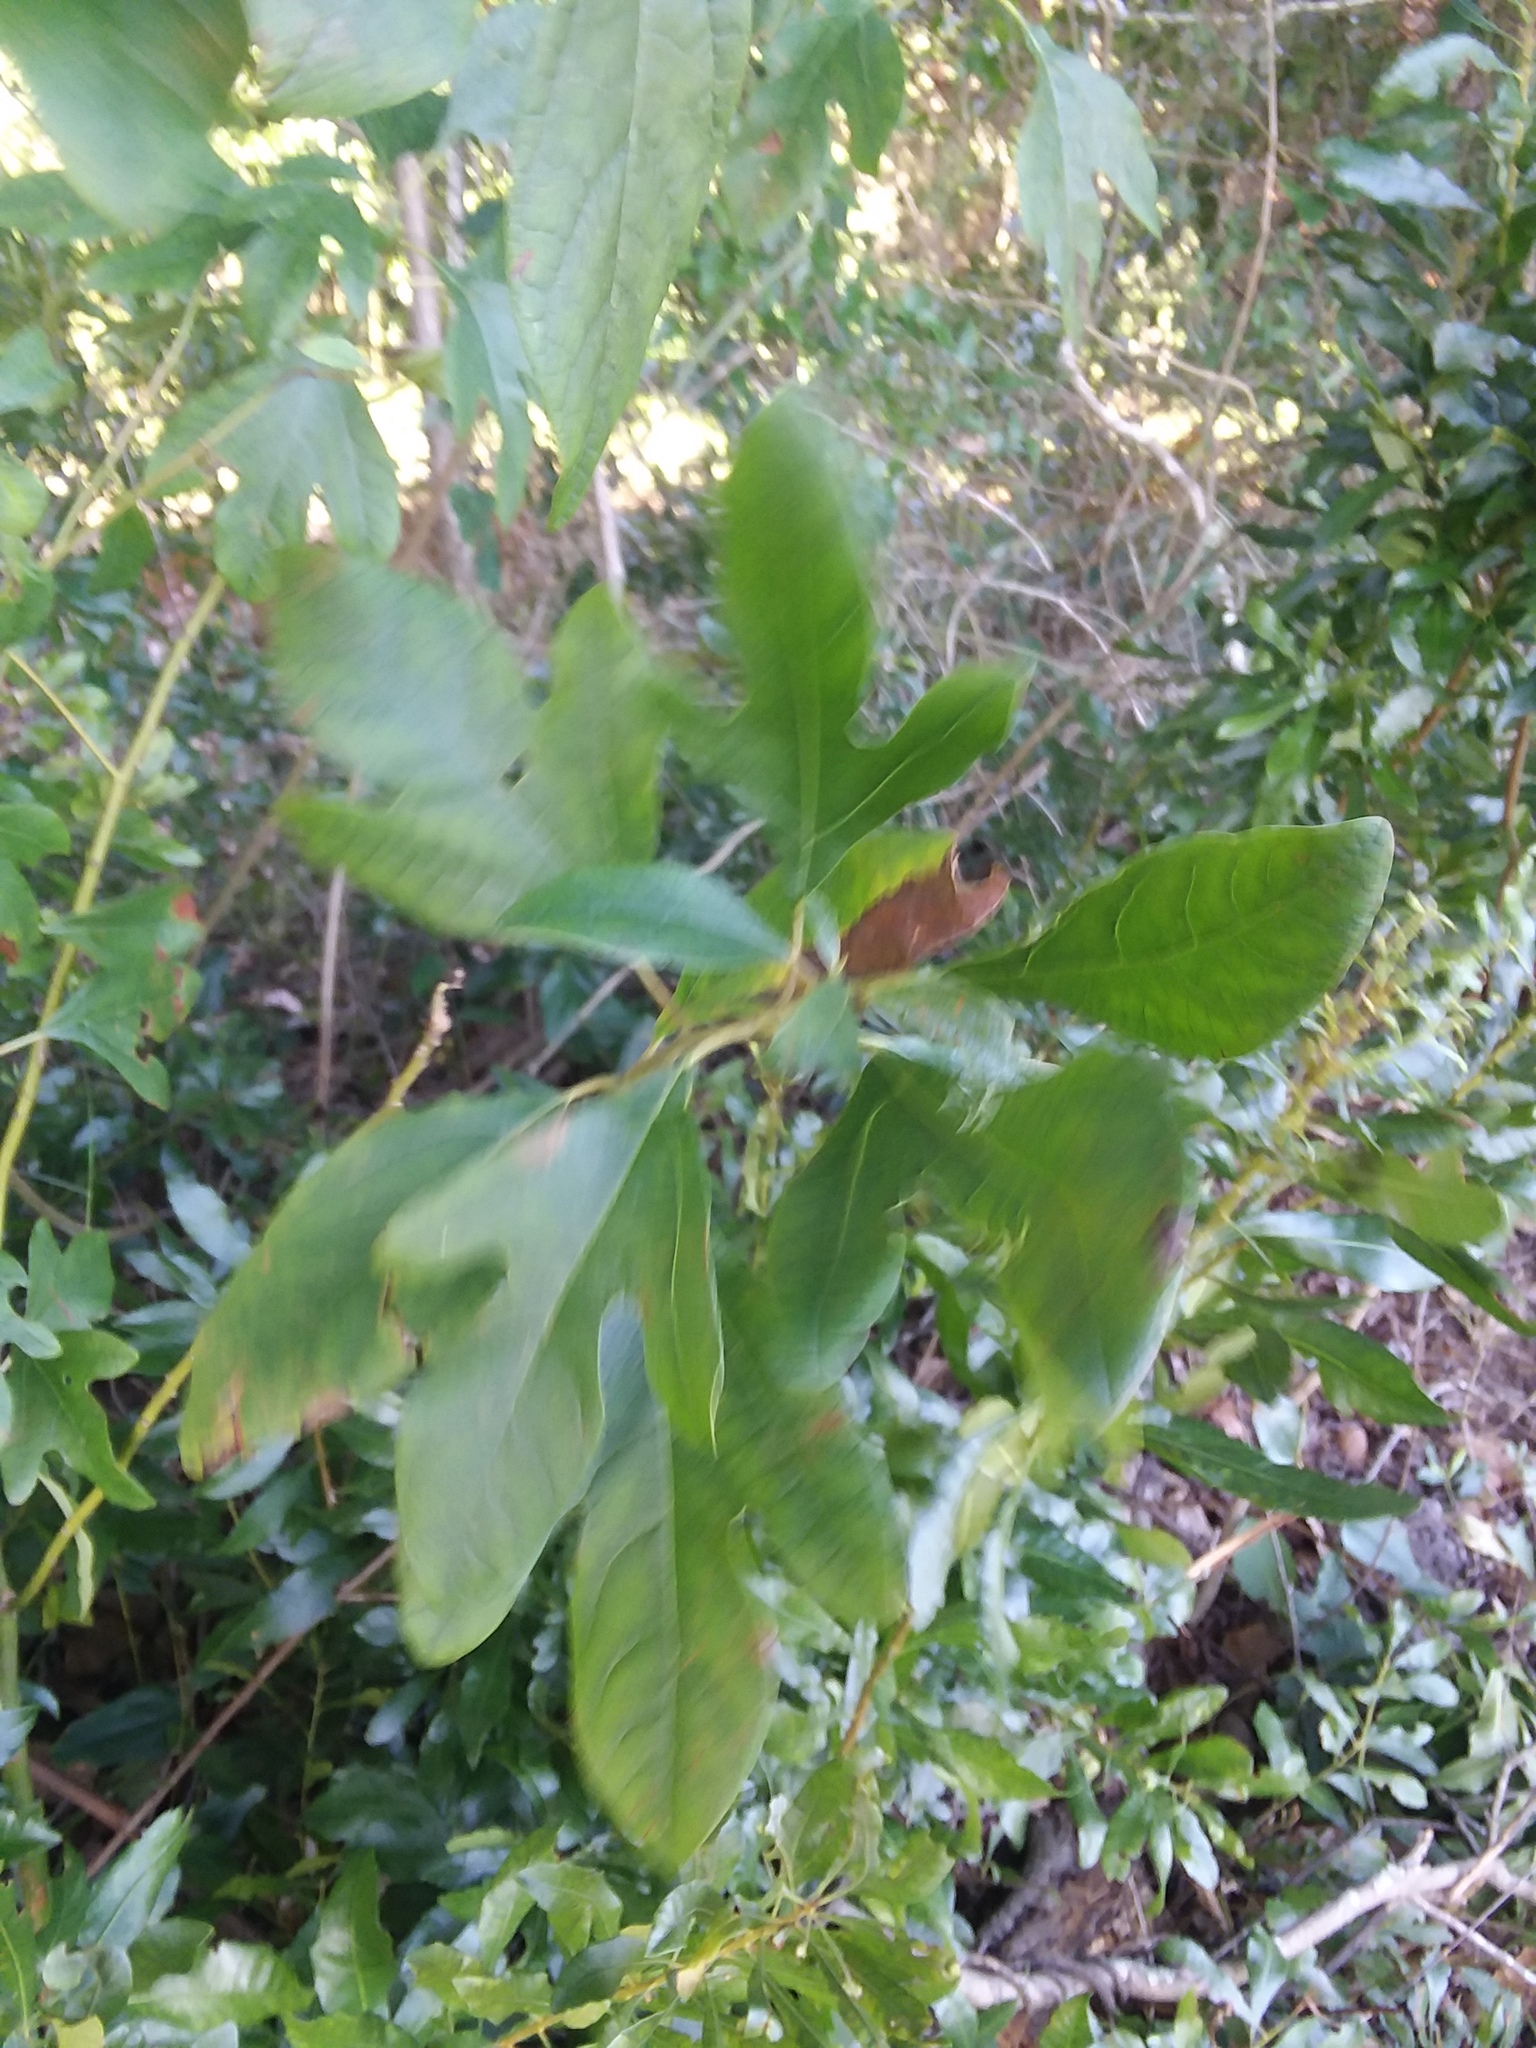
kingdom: Plantae
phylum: Tracheophyta
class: Magnoliopsida
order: Laurales
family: Lauraceae
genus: Sassafras
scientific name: Sassafras albidum
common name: Sassafras
